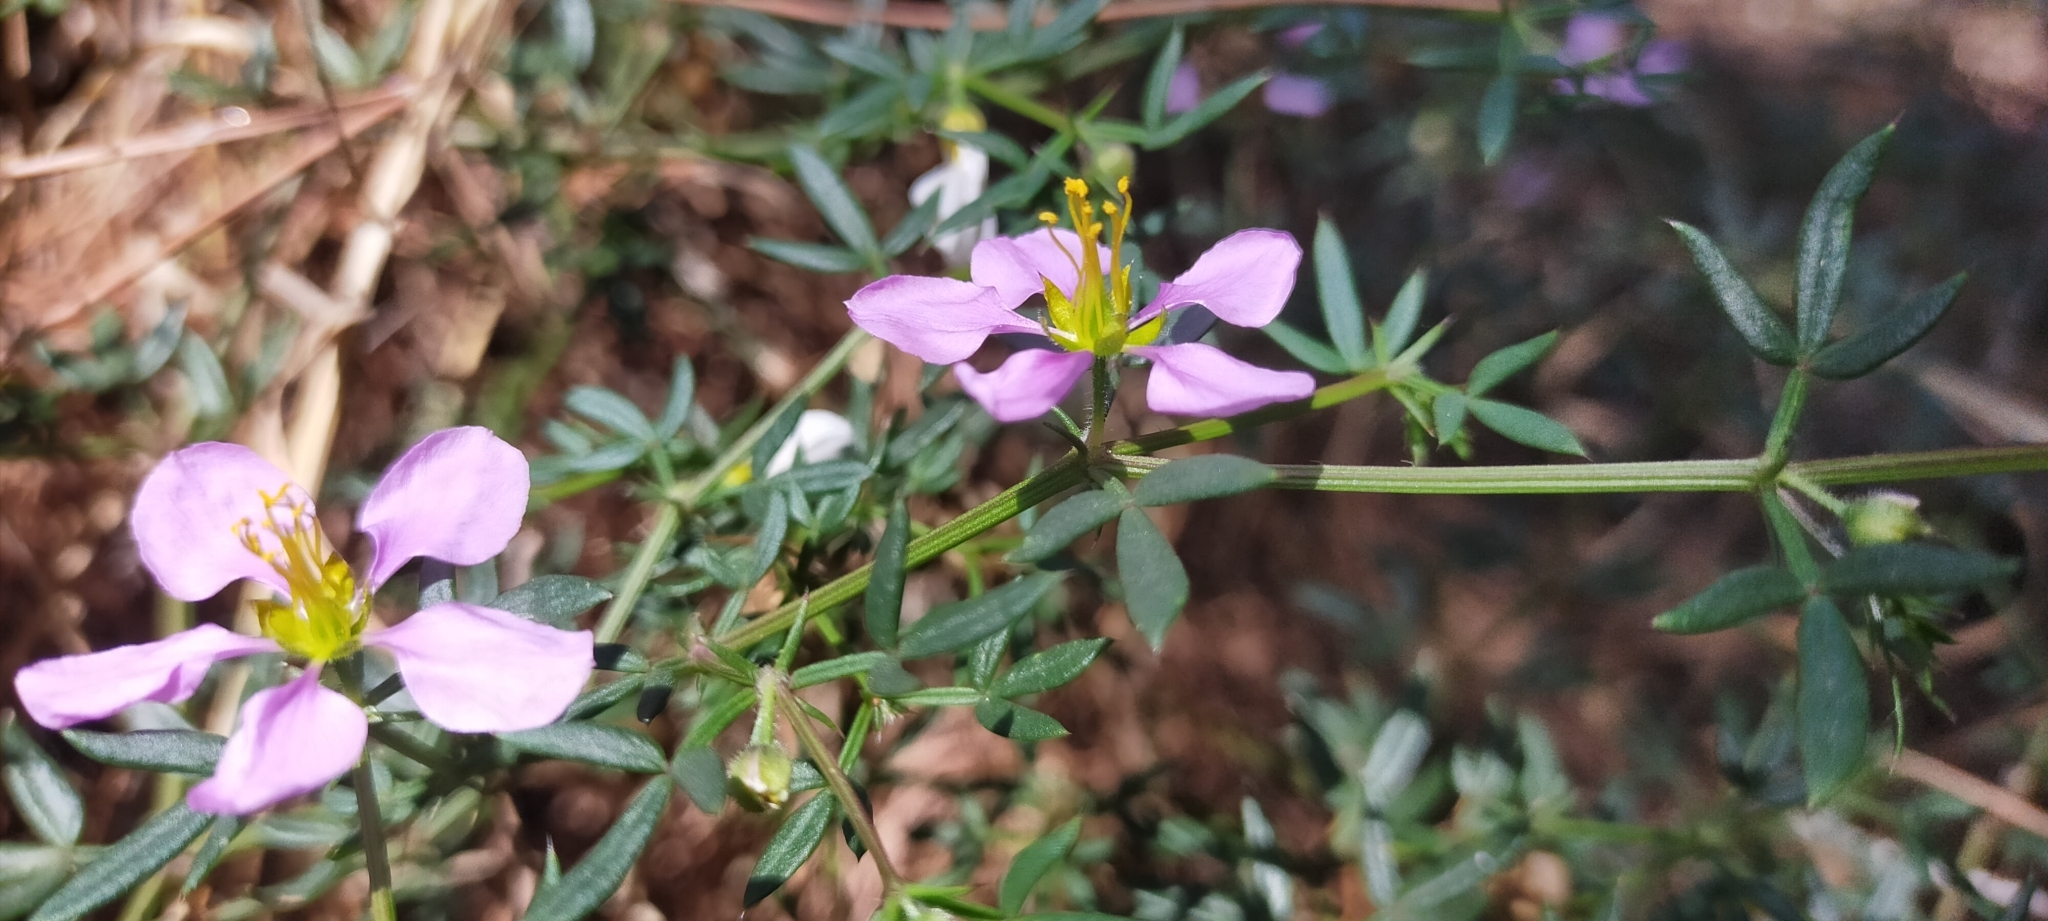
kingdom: Plantae
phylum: Tracheophyta
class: Magnoliopsida
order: Zygophyllales
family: Zygophyllaceae
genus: Fagonia
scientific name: Fagonia cretica
